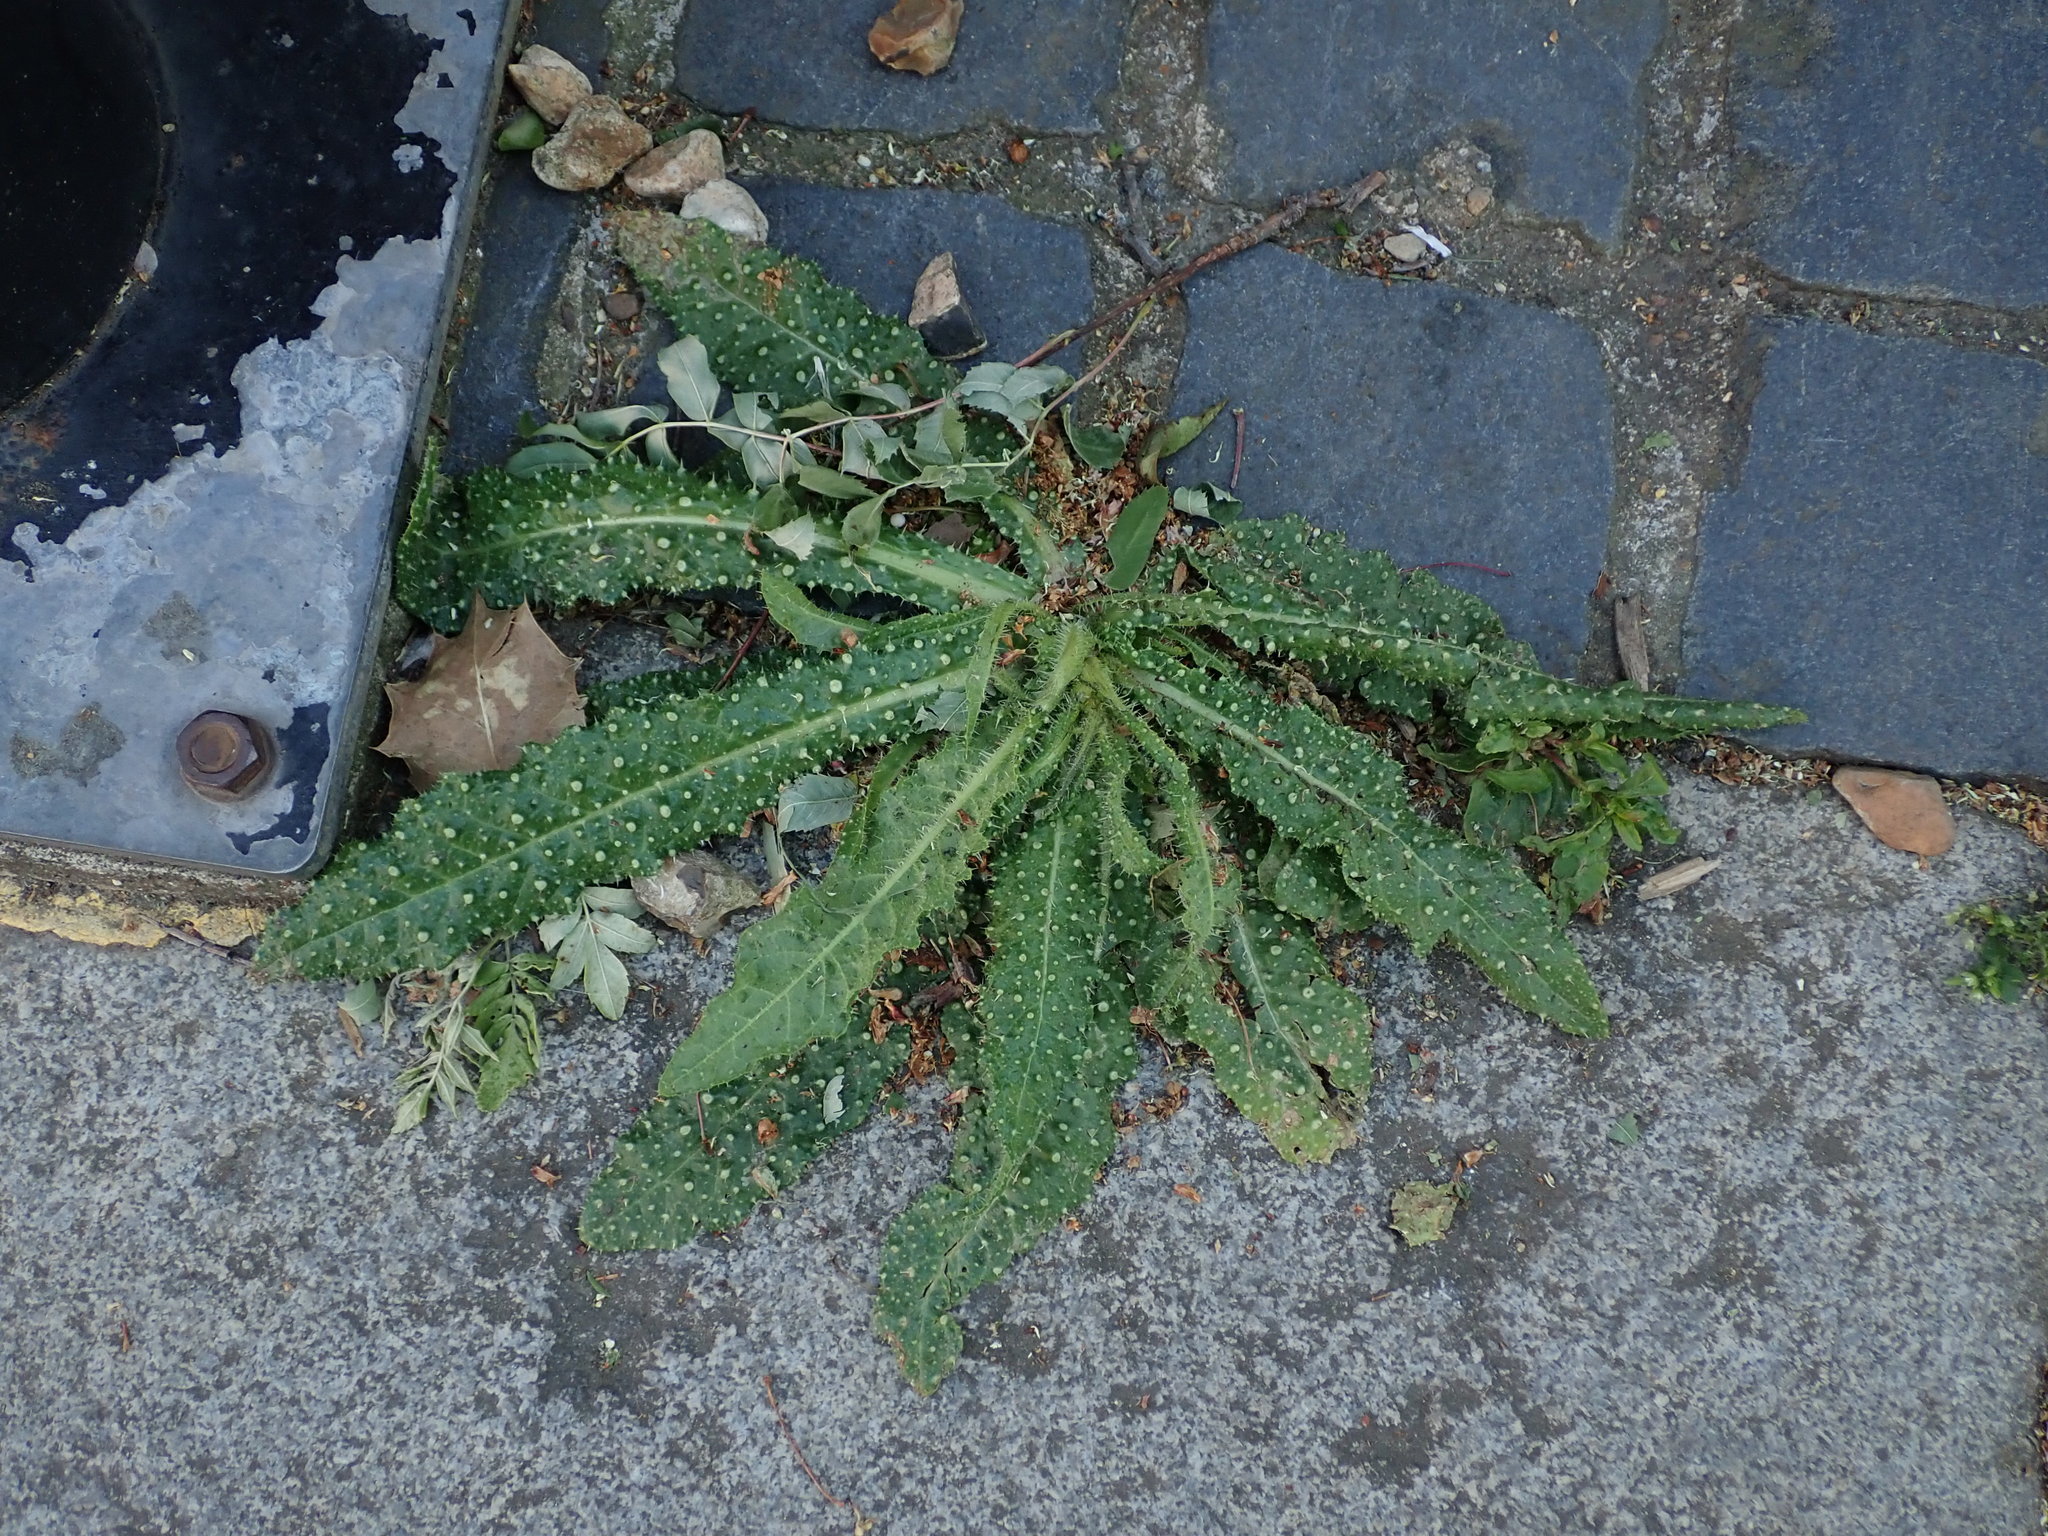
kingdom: Plantae
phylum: Tracheophyta
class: Magnoliopsida
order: Asterales
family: Asteraceae
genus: Helminthotheca
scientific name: Helminthotheca echioides
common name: Ox-tongue
